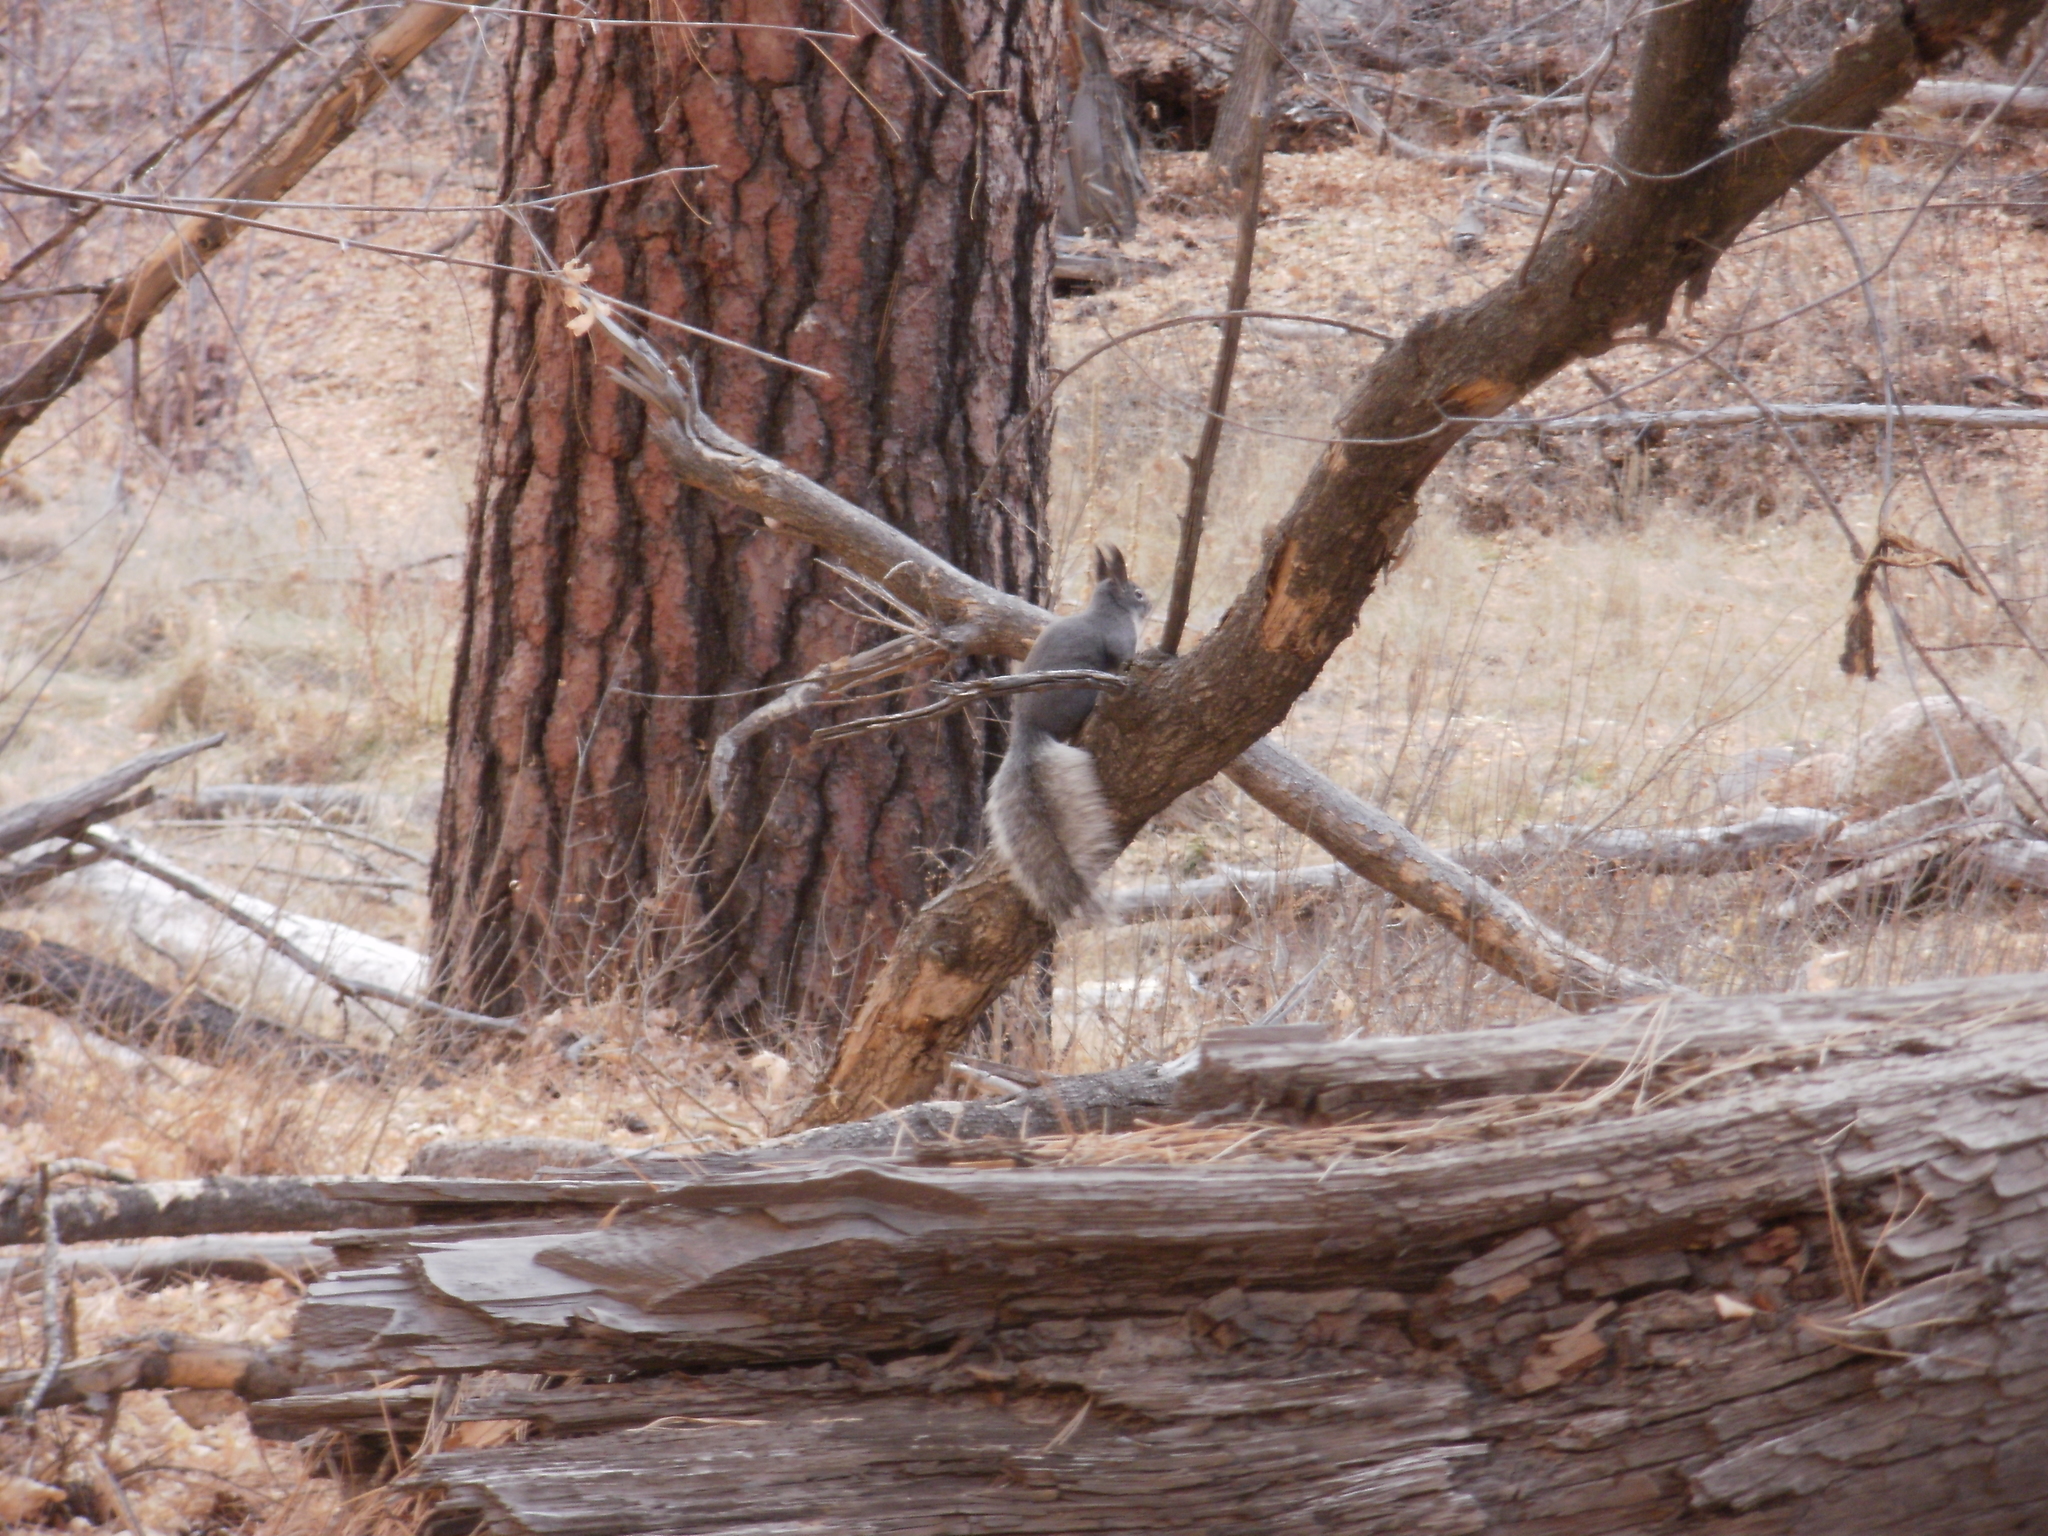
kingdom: Animalia
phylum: Chordata
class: Mammalia
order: Rodentia
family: Sciuridae
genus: Sciurus
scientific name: Sciurus aberti
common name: Abert's squirrel
